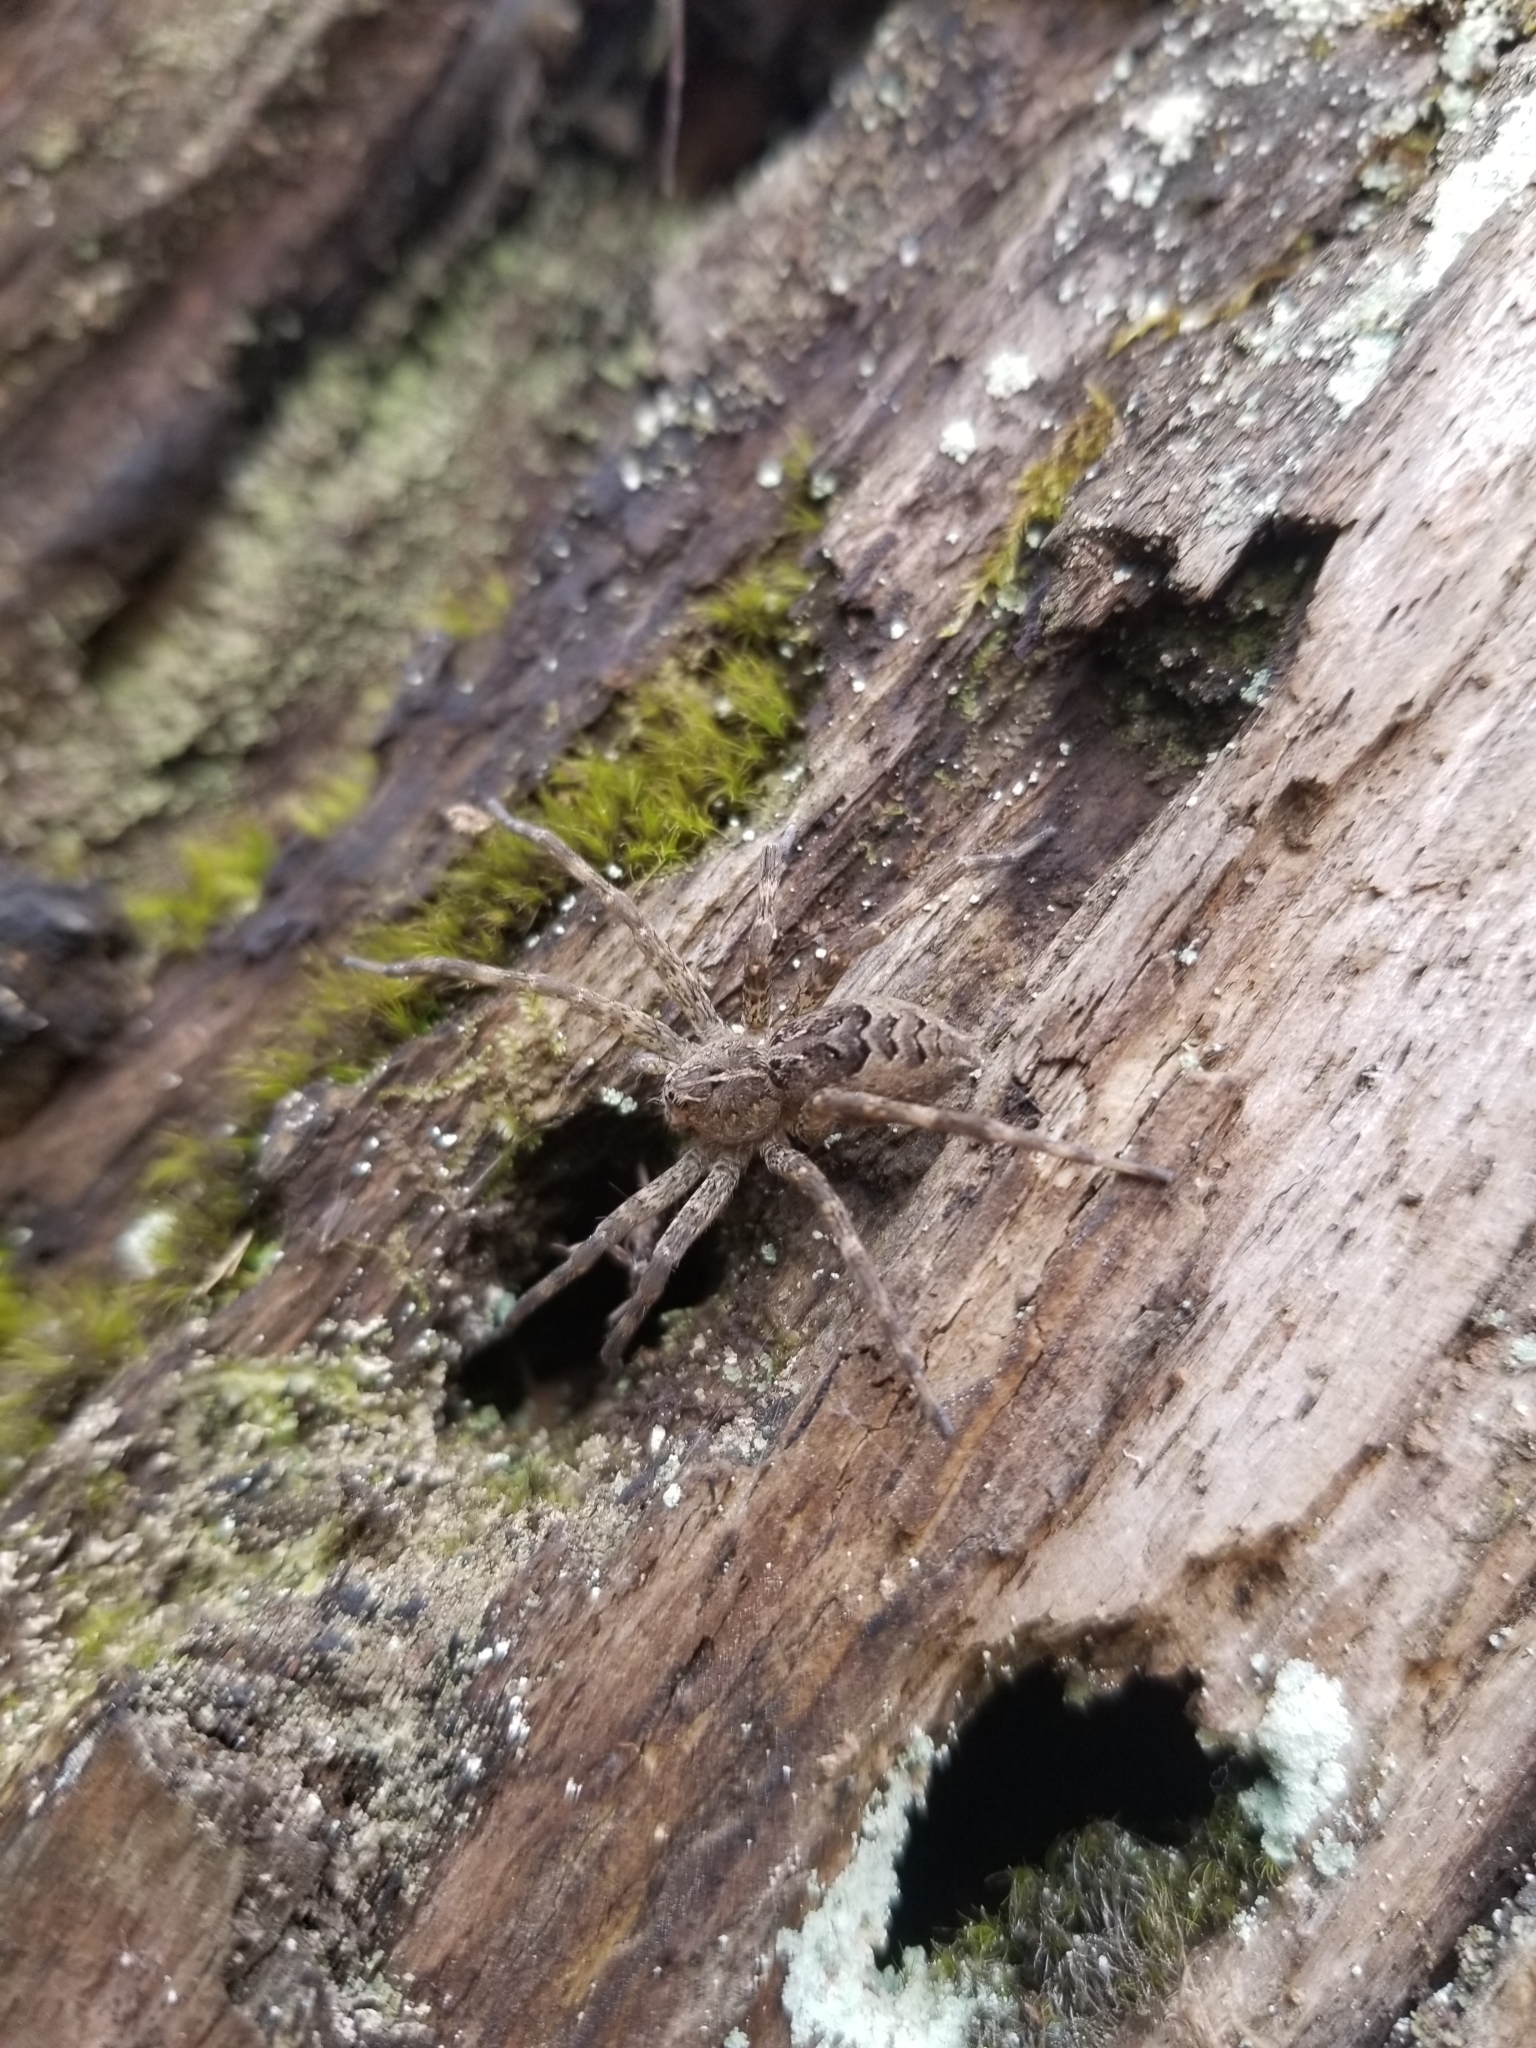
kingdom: Animalia
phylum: Arthropoda
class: Arachnida
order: Araneae
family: Pisauridae
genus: Dolomedes
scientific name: Dolomedes scriptus
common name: Striped fishing spider
